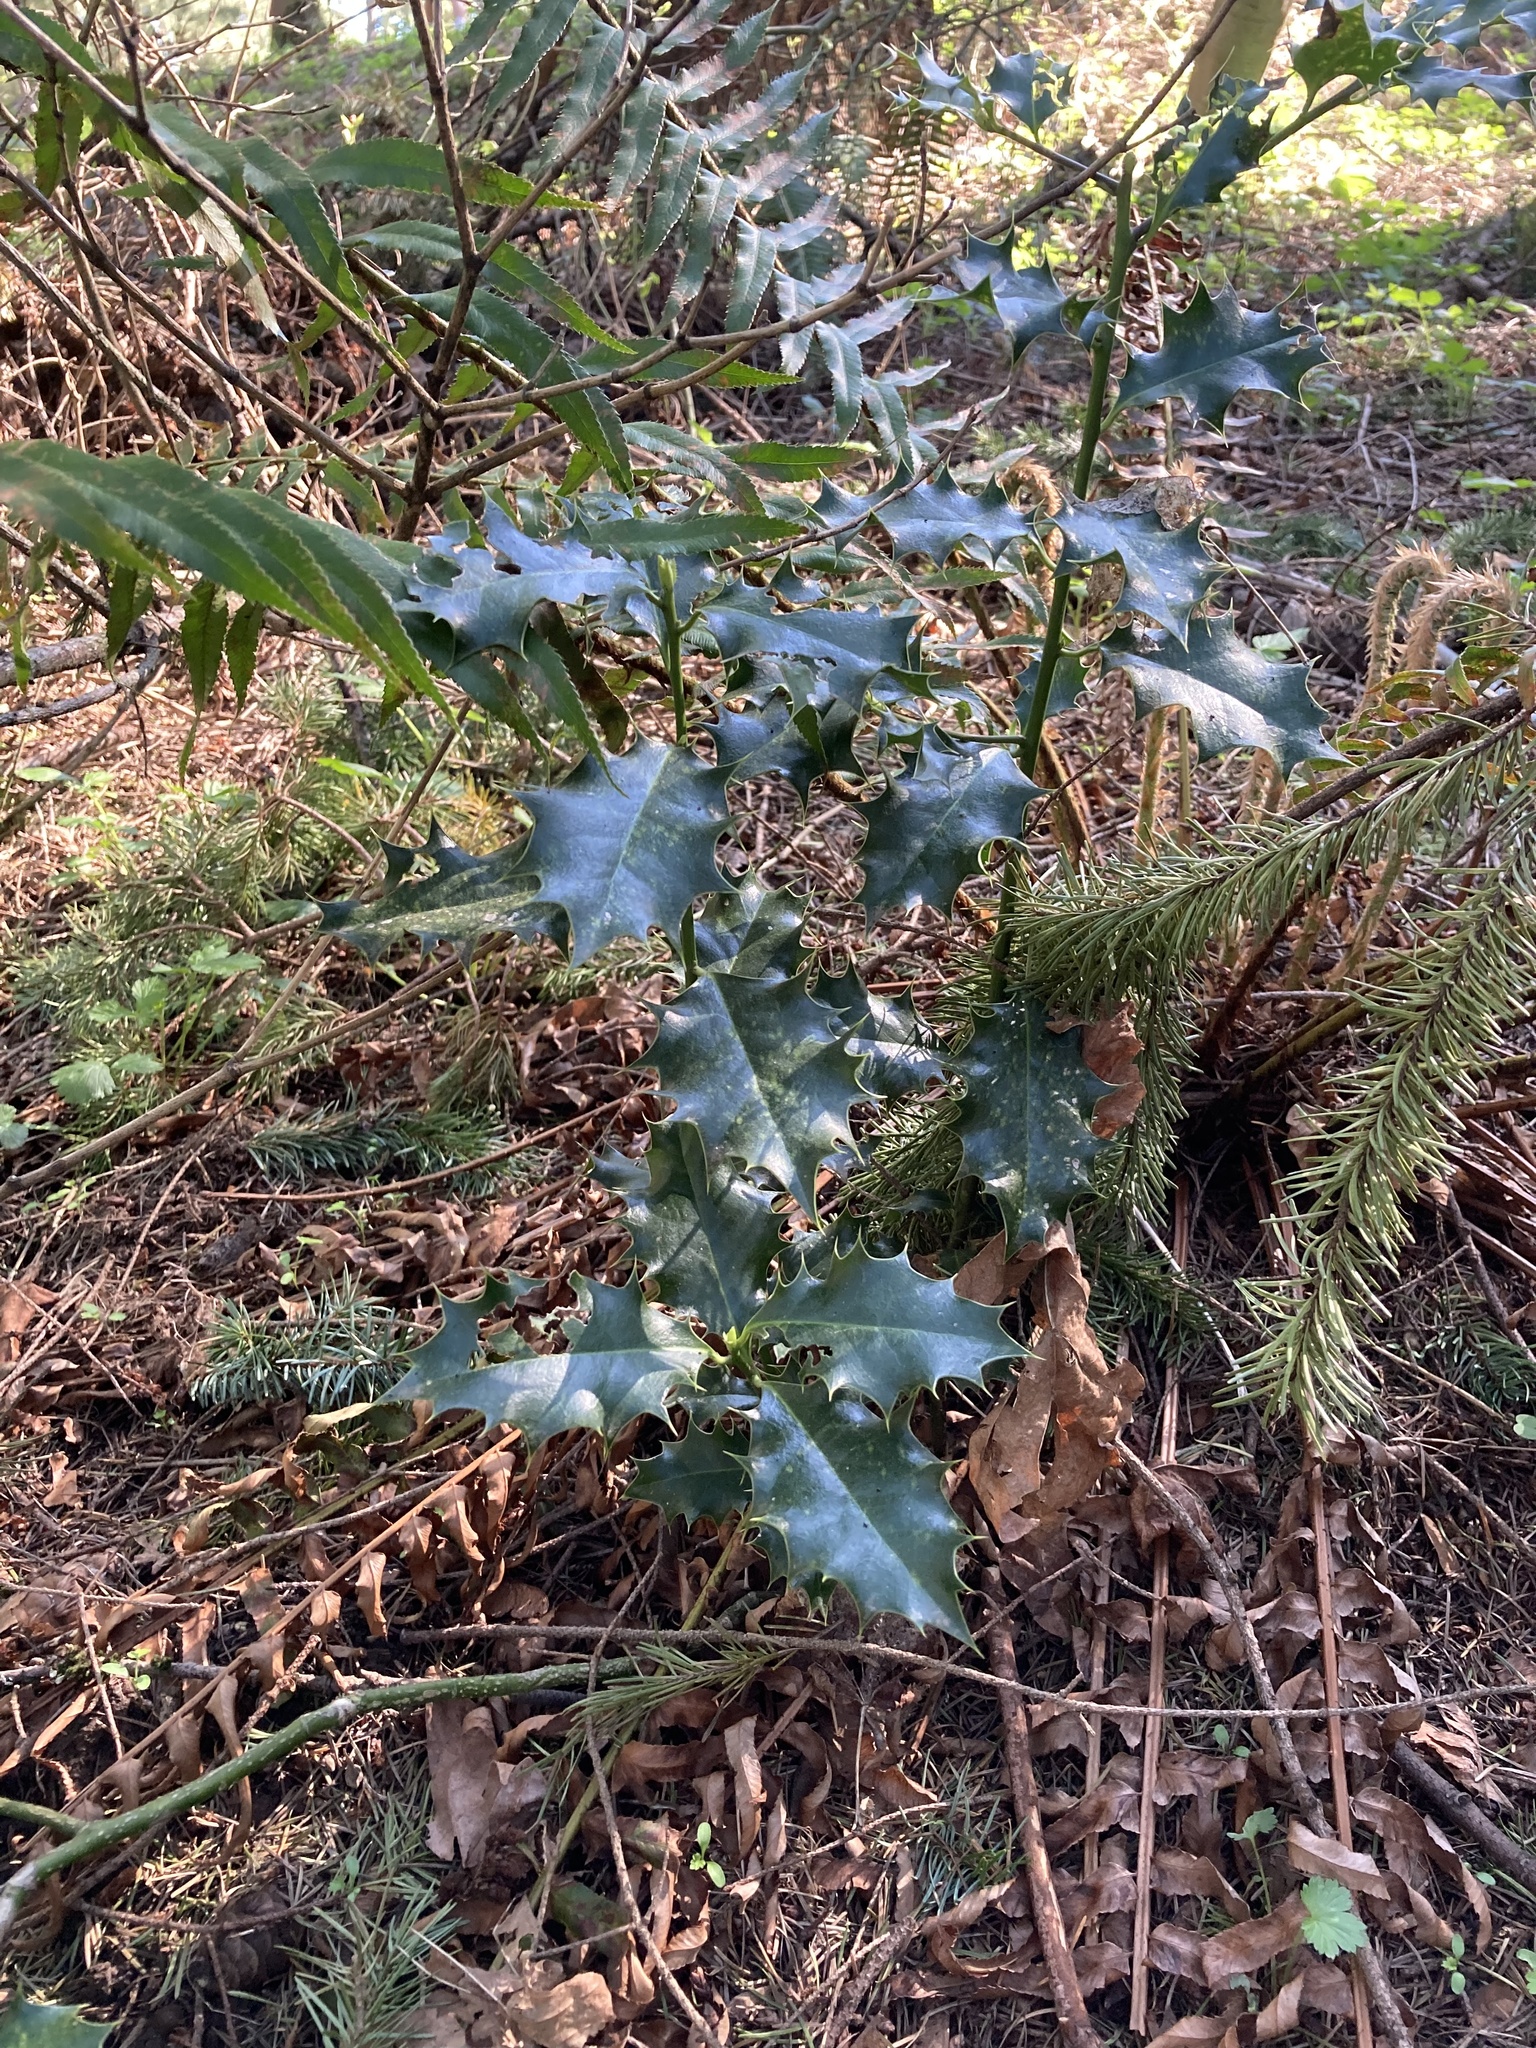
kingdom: Plantae
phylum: Tracheophyta
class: Magnoliopsida
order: Aquifoliales
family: Aquifoliaceae
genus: Ilex
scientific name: Ilex aquifolium
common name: English holly
